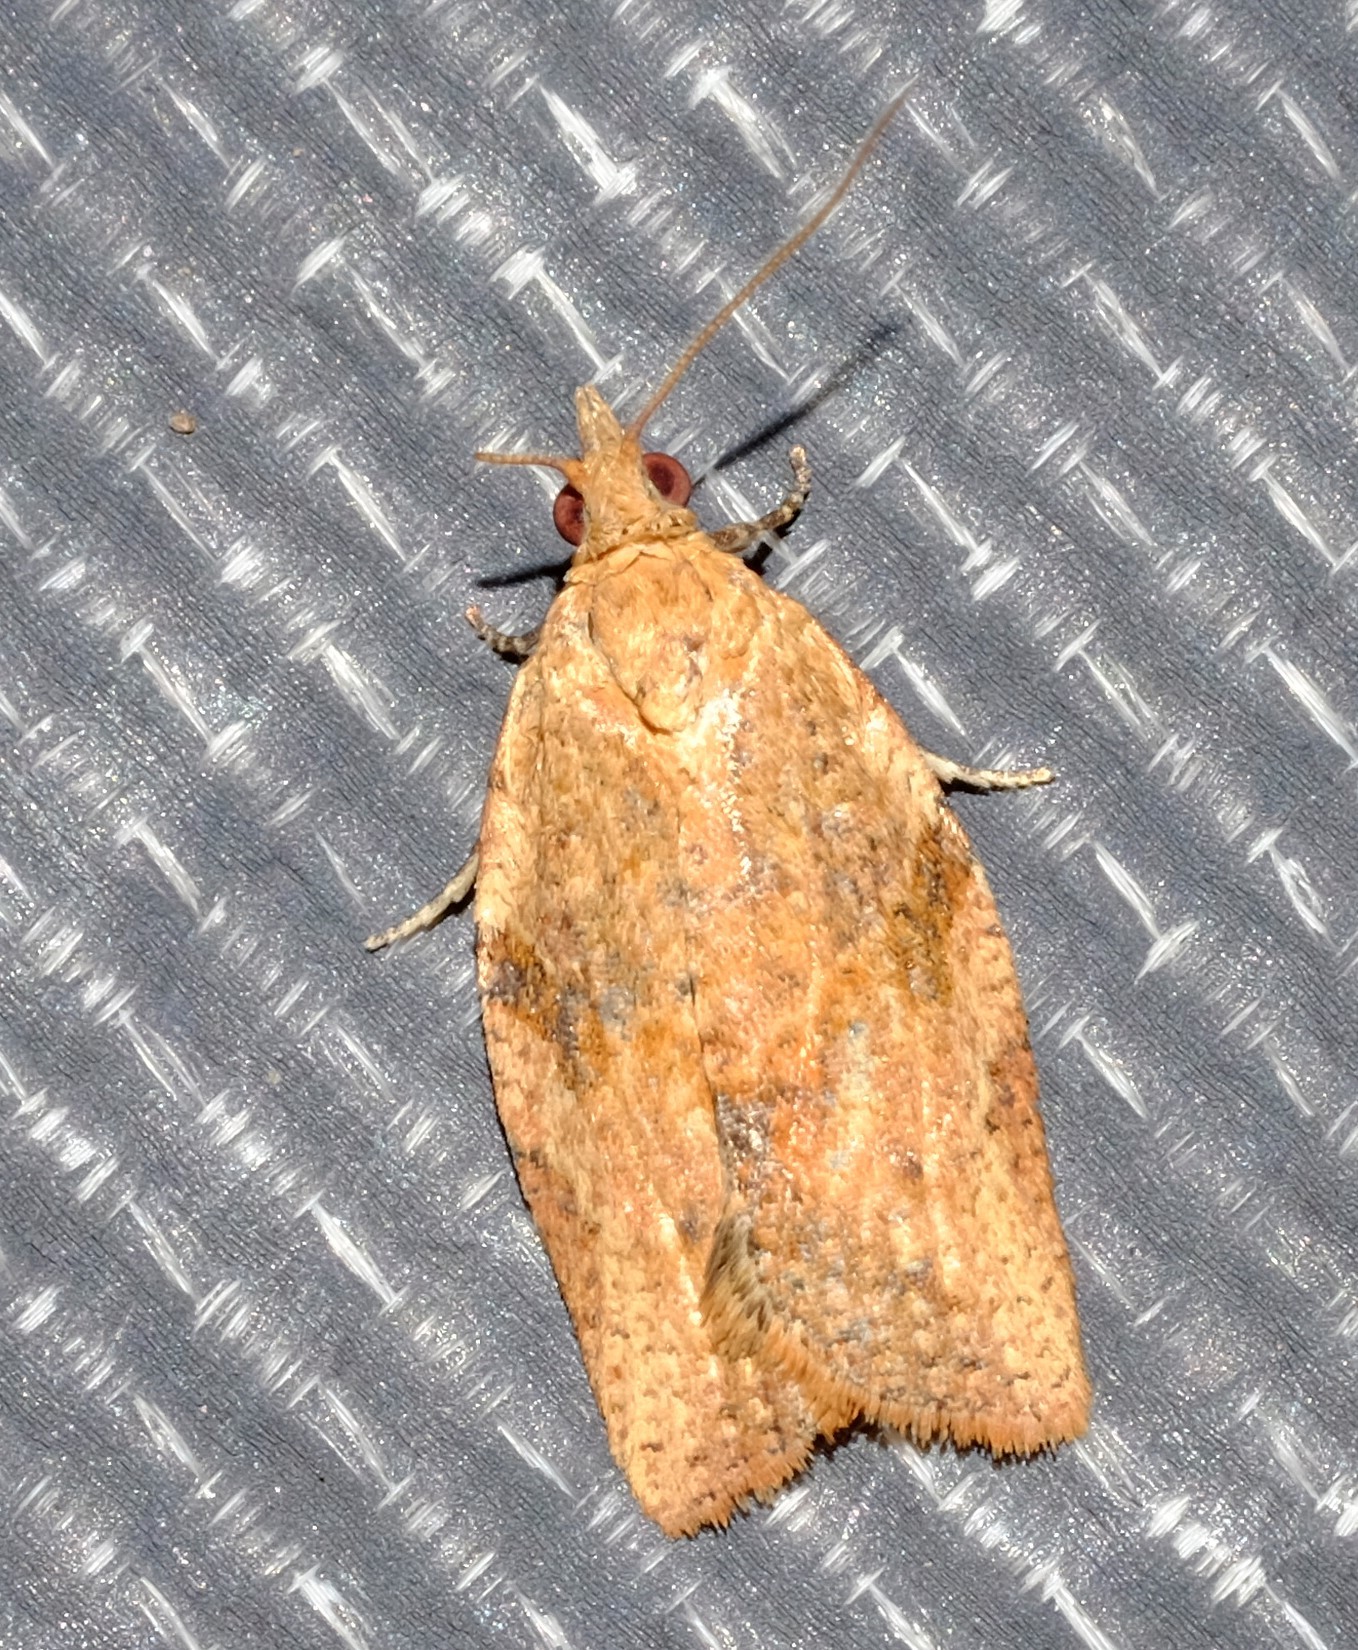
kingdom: Animalia
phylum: Arthropoda
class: Insecta
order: Lepidoptera
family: Tortricidae
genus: Epiphyas
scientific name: Epiphyas postvittana
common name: Light brown apple moth
